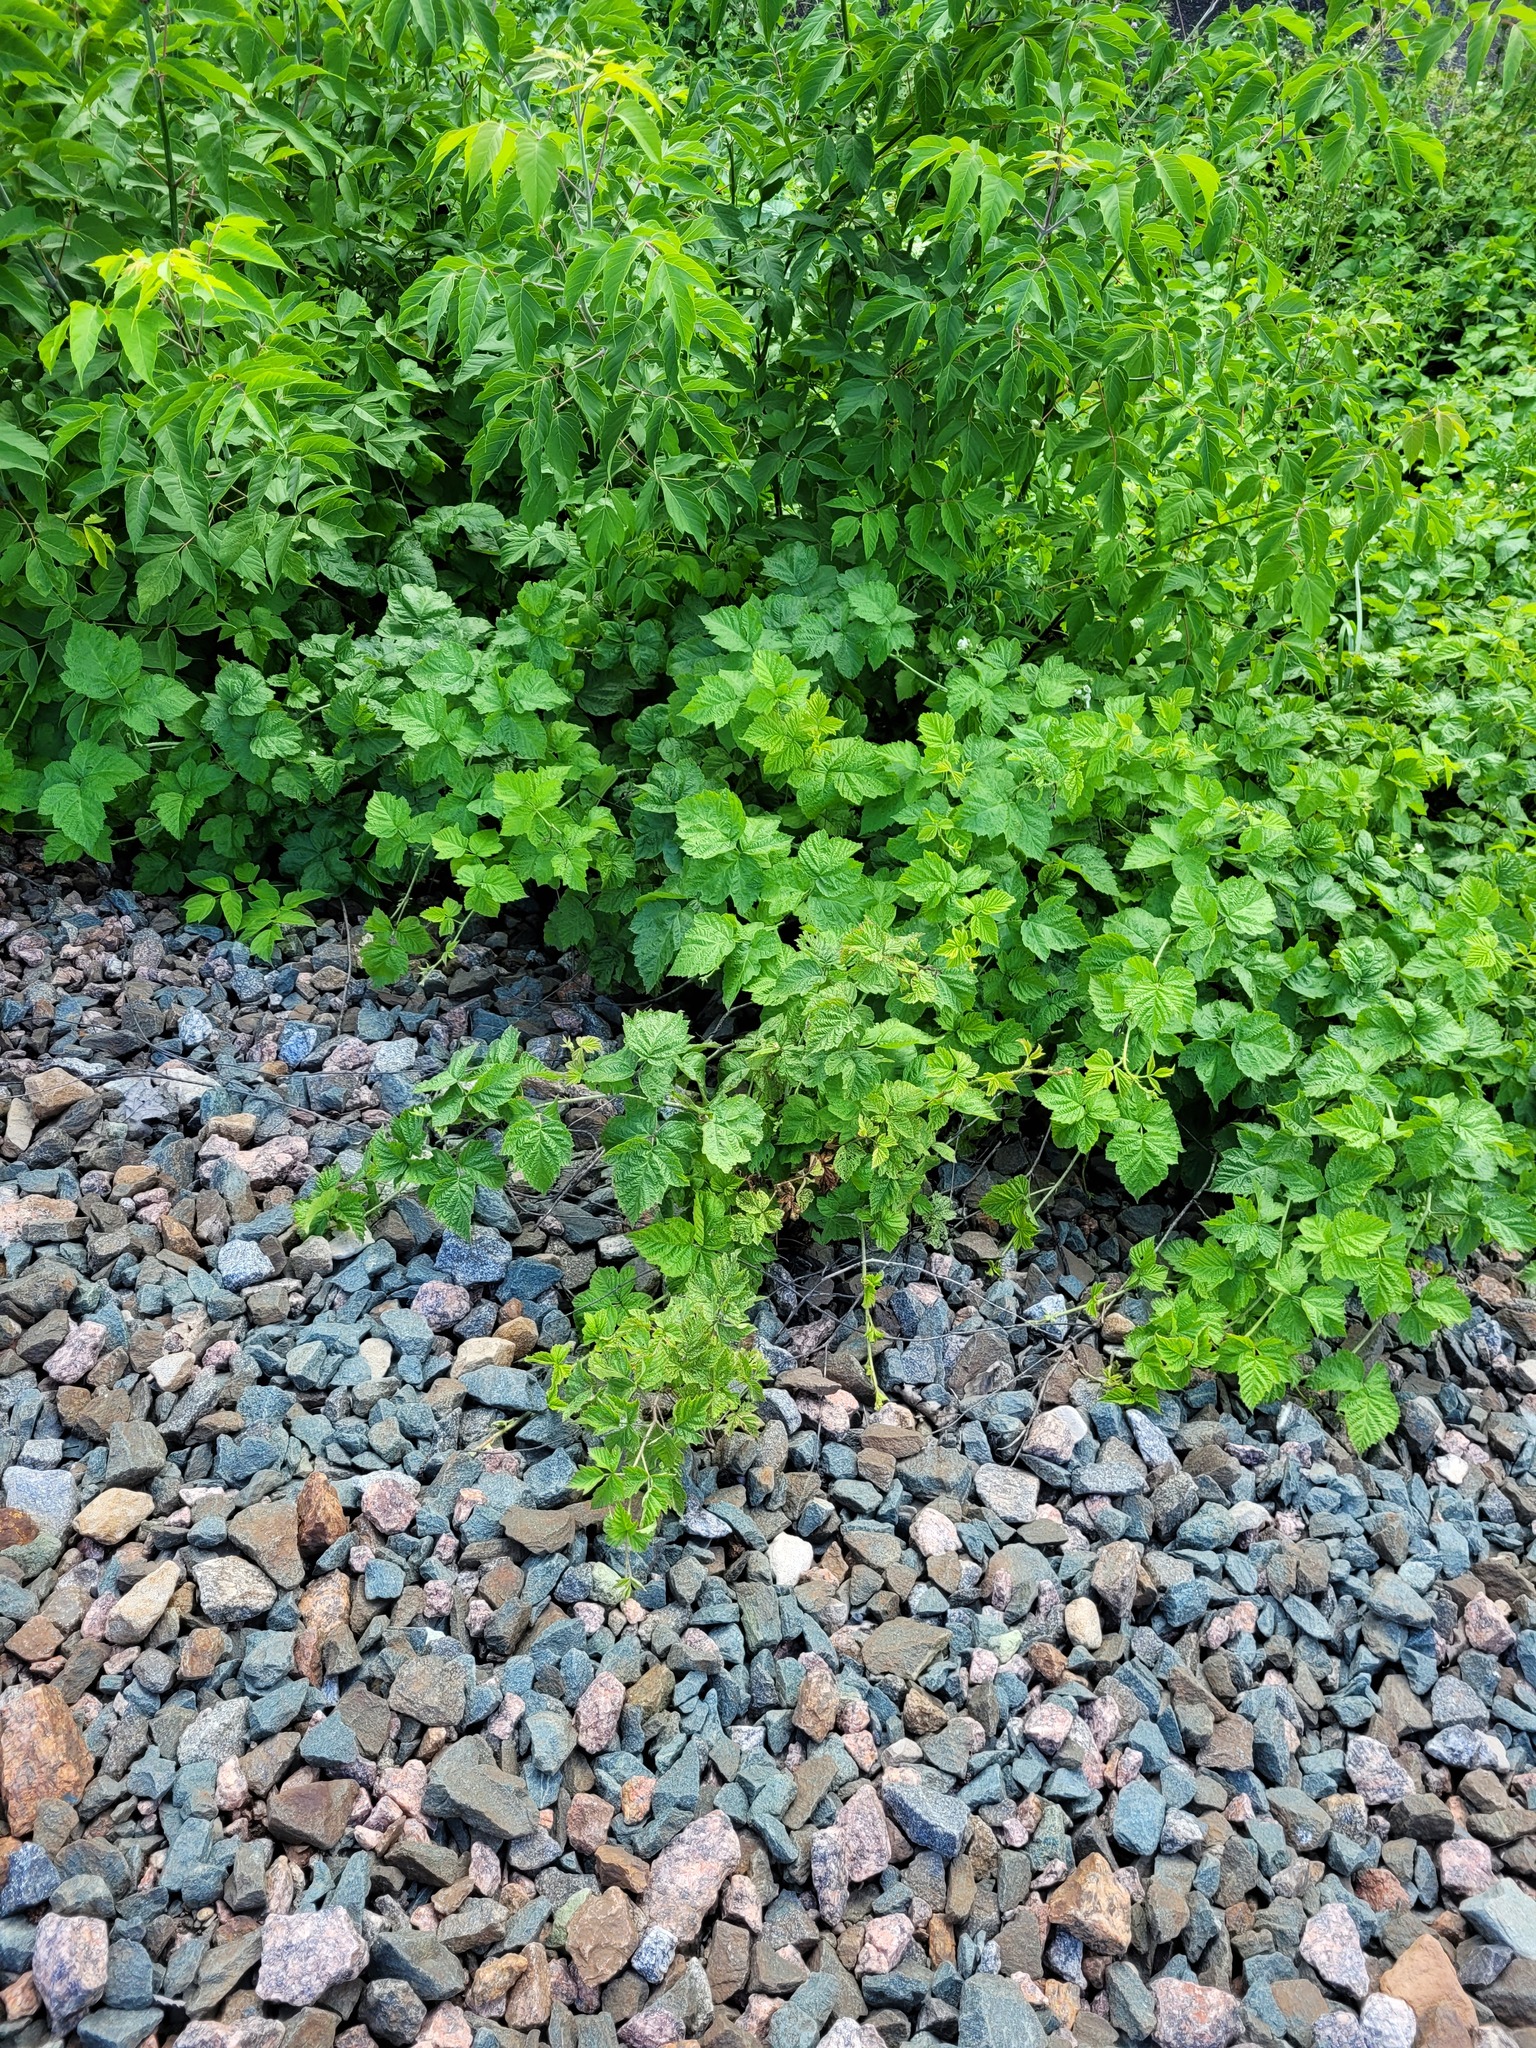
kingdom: Plantae
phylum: Tracheophyta
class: Magnoliopsida
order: Rosales
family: Rosaceae
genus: Rubus
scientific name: Rubus caesius
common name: Dewberry
